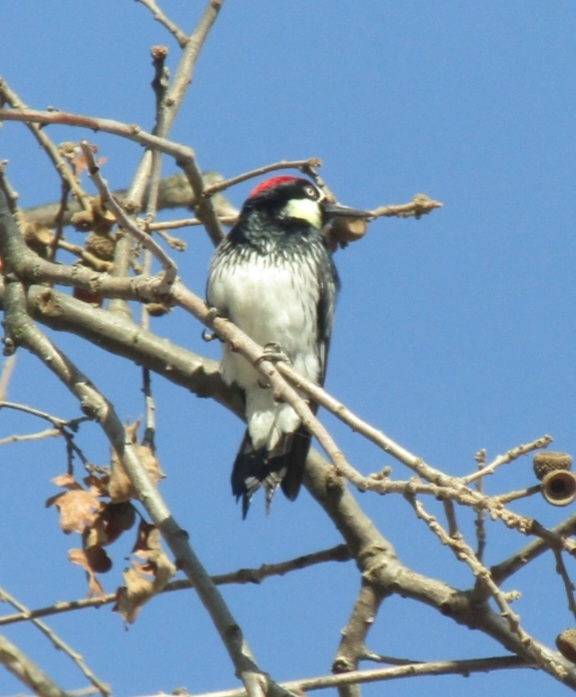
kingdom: Animalia
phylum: Chordata
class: Aves
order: Piciformes
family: Picidae
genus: Melanerpes
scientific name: Melanerpes formicivorus
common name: Acorn woodpecker
